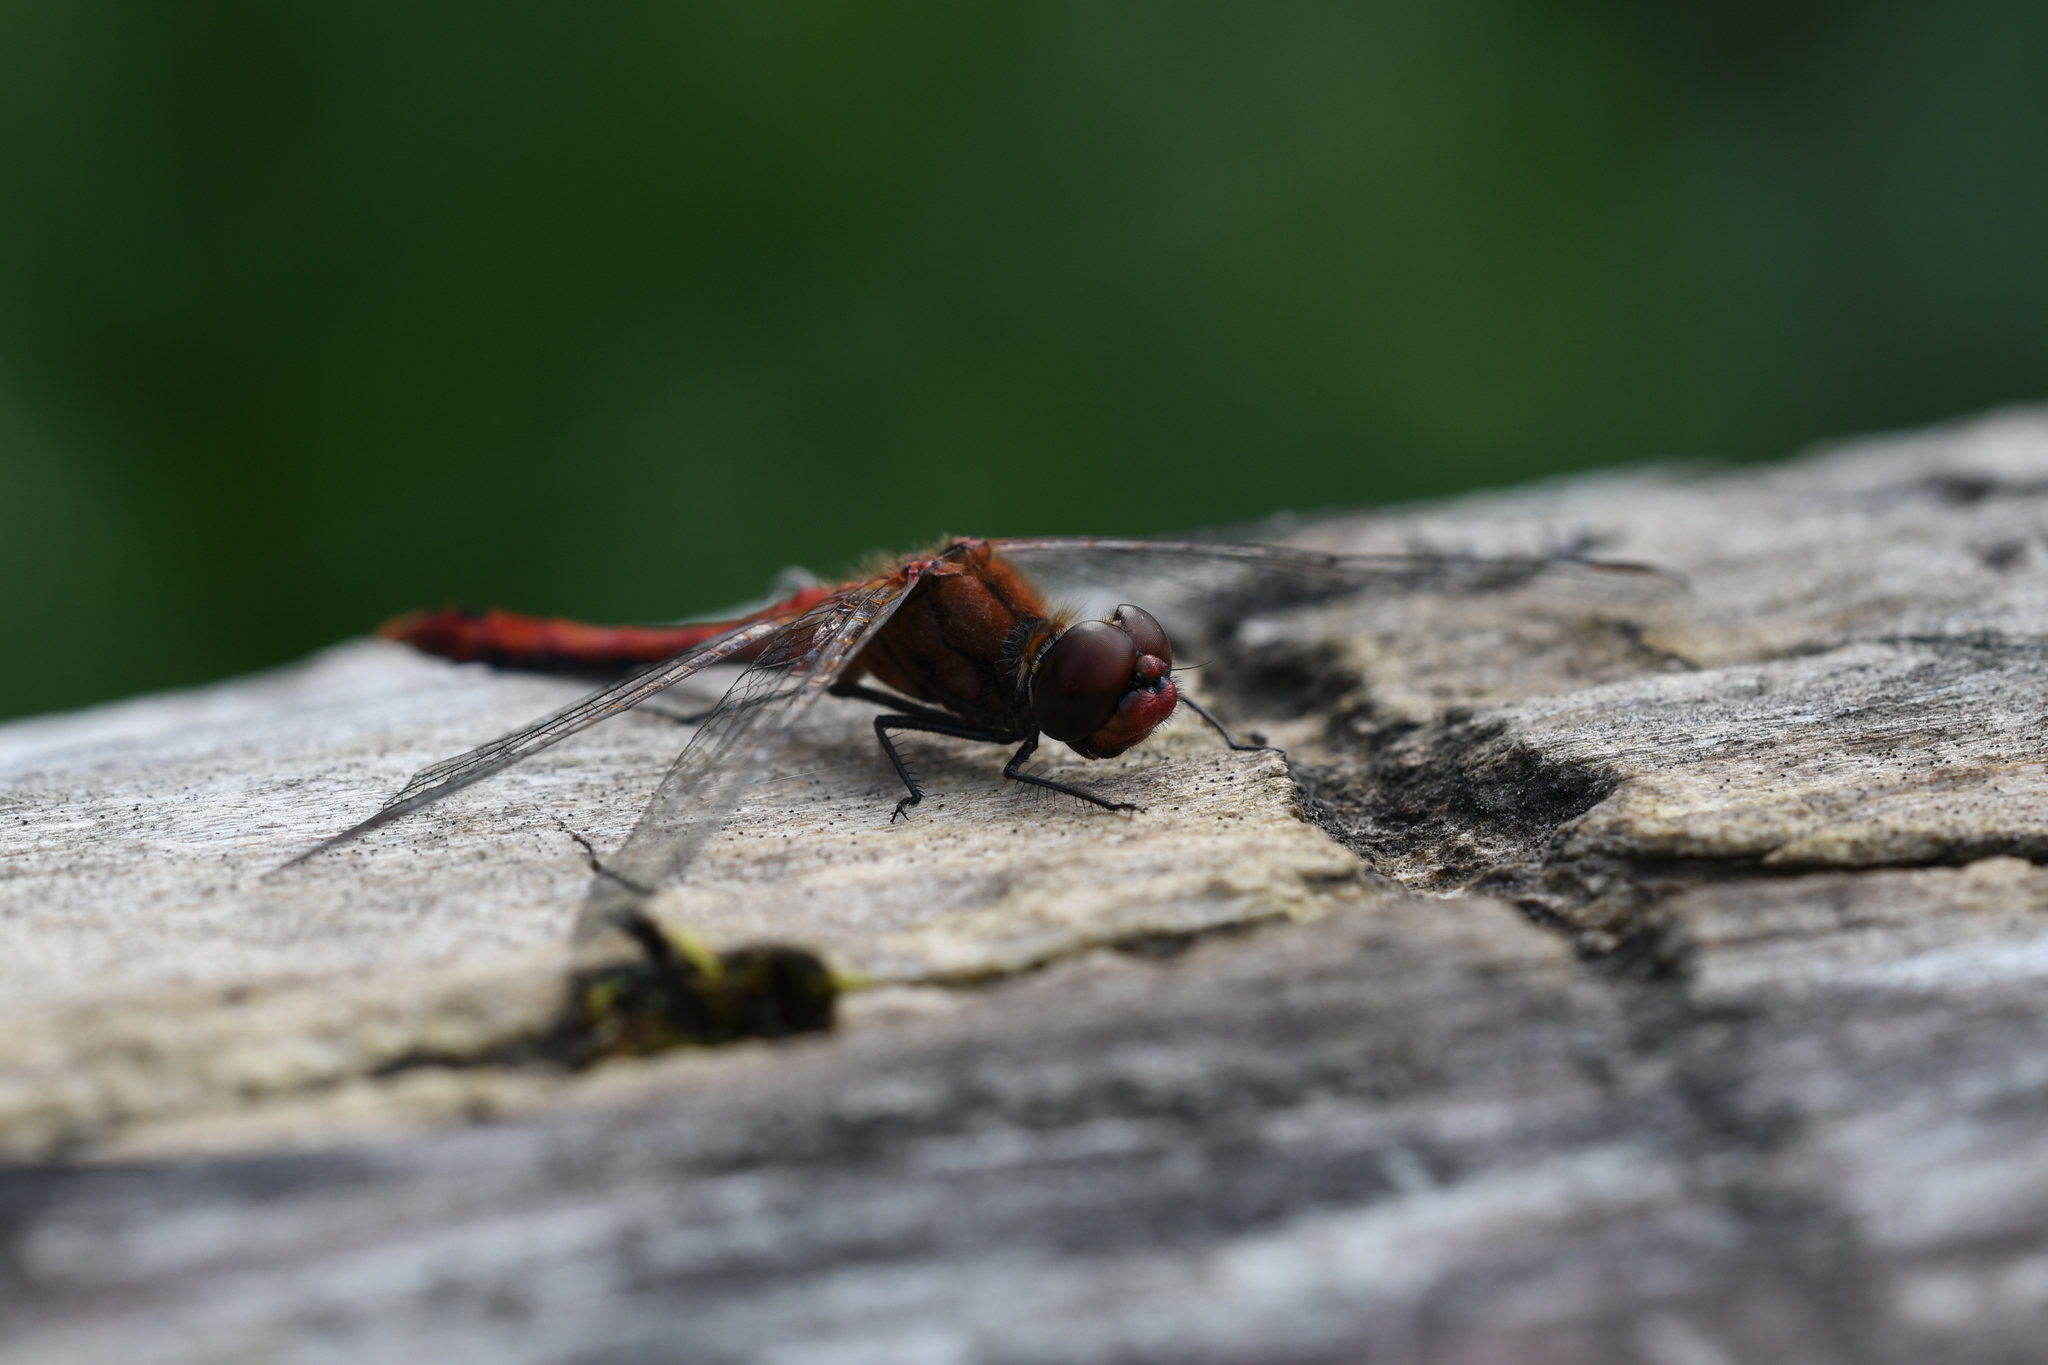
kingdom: Animalia
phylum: Arthropoda
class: Insecta
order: Odonata
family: Libellulidae
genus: Sympetrum
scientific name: Sympetrum sanguineum
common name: Ruddy darter
